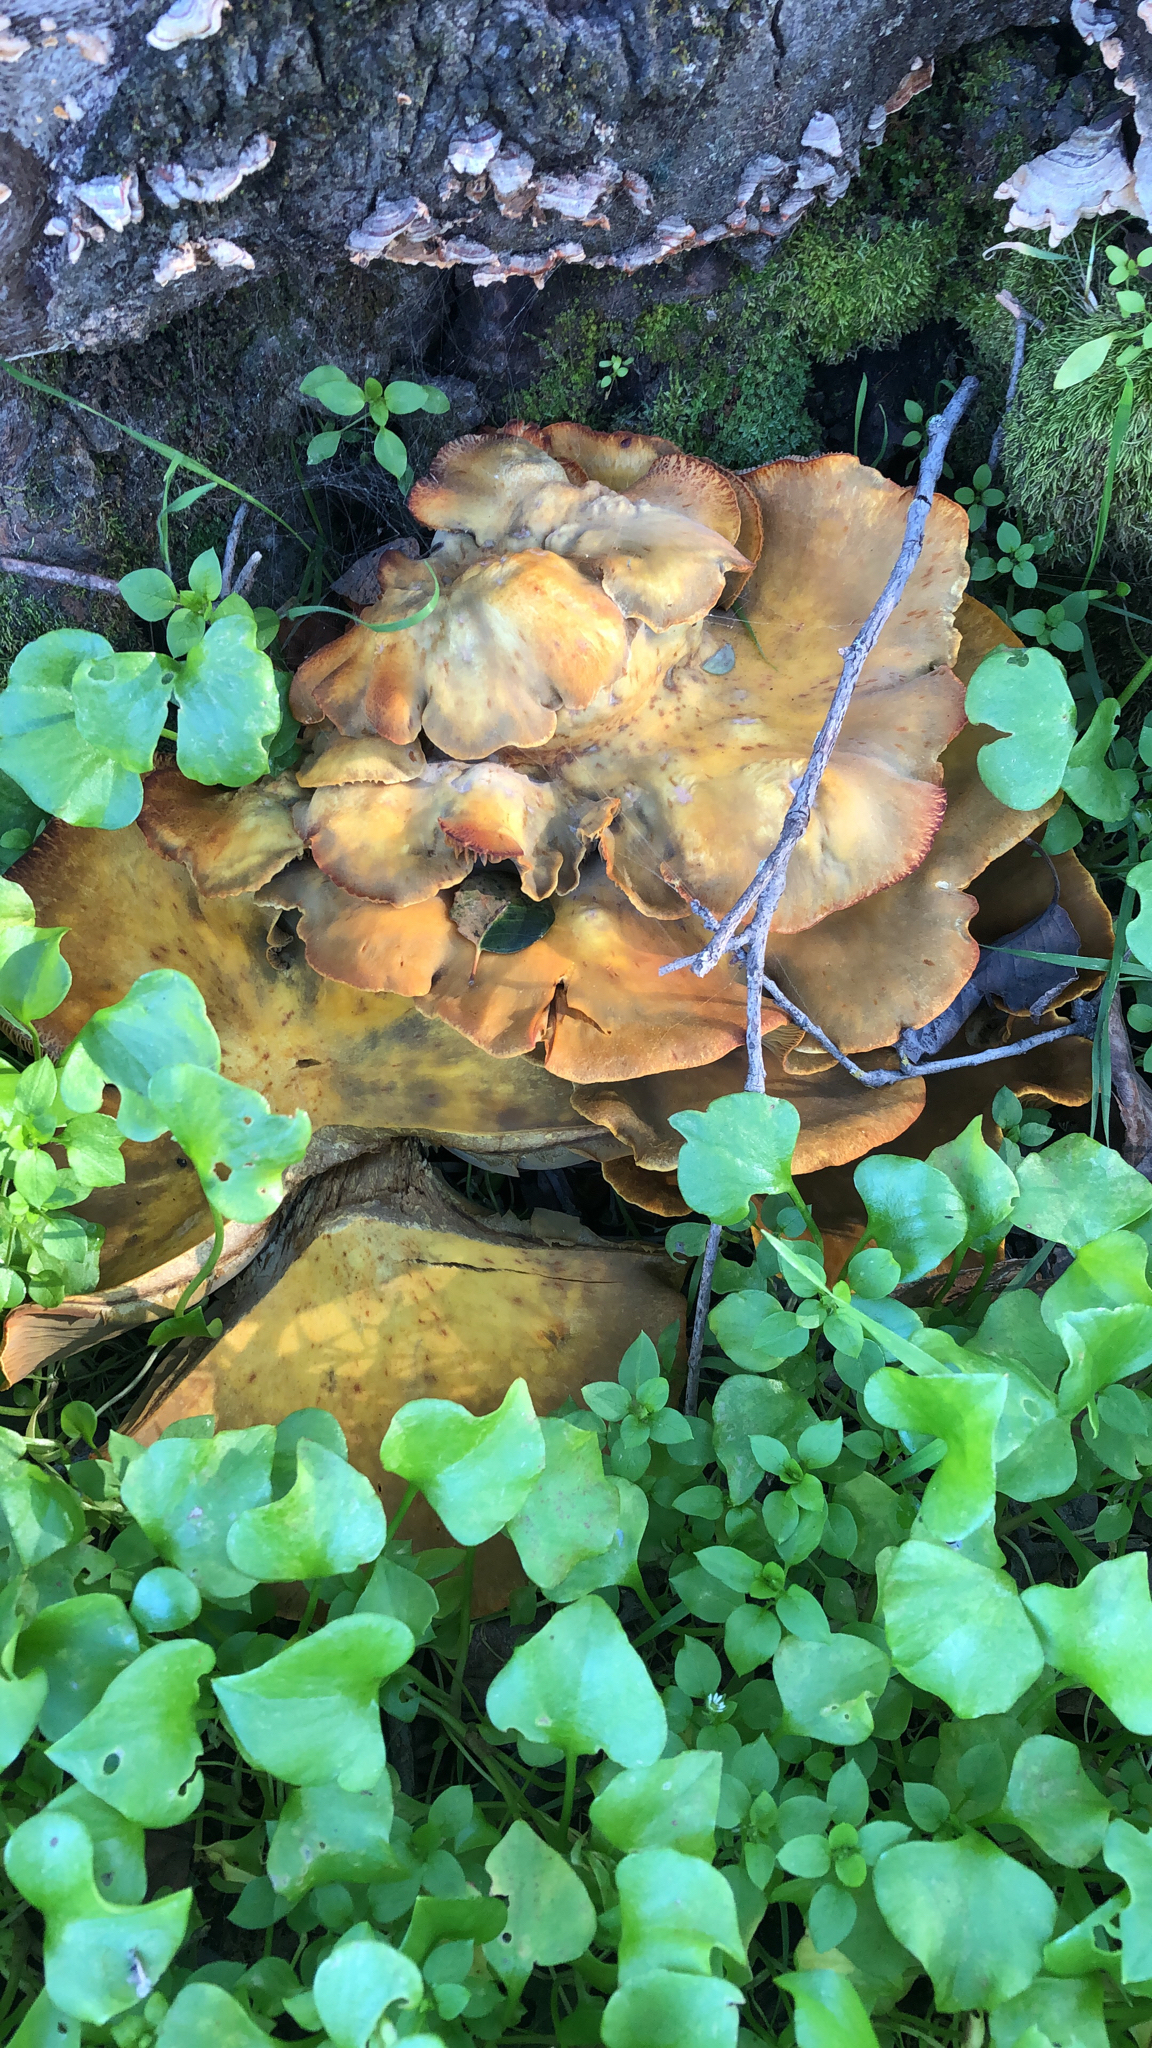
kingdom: Fungi
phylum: Basidiomycota
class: Agaricomycetes
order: Agaricales
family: Omphalotaceae
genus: Omphalotus
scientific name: Omphalotus olivascens
